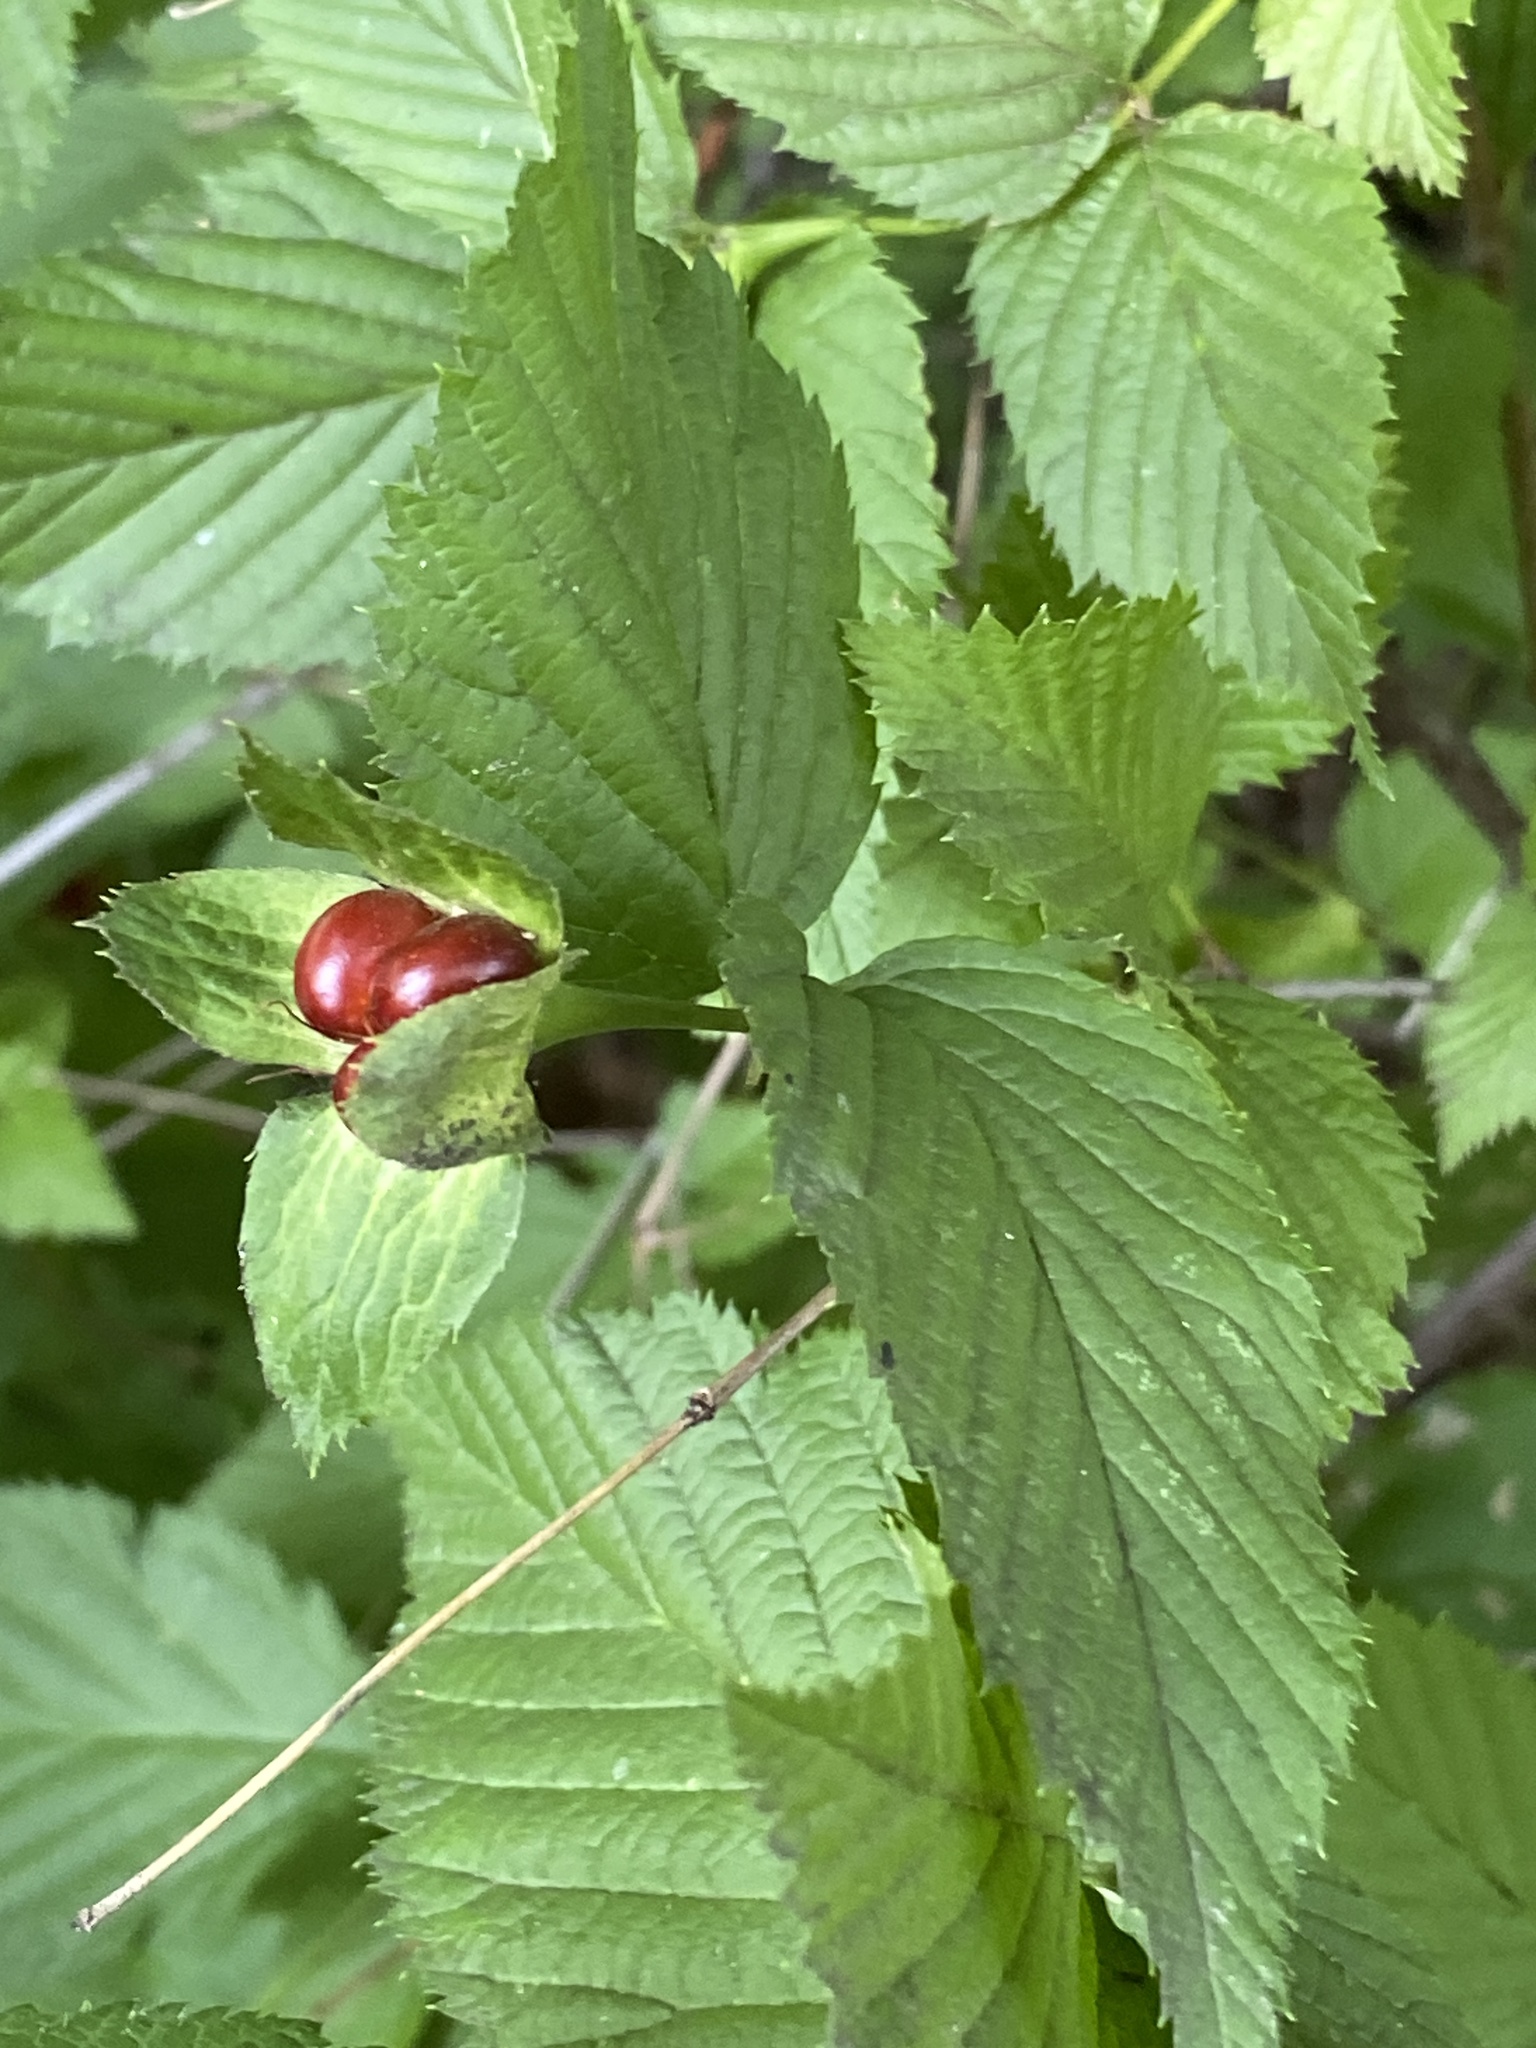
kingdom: Plantae
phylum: Tracheophyta
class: Magnoliopsida
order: Rosales
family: Rosaceae
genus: Rhodotypos
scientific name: Rhodotypos scandens
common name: Jetbead
